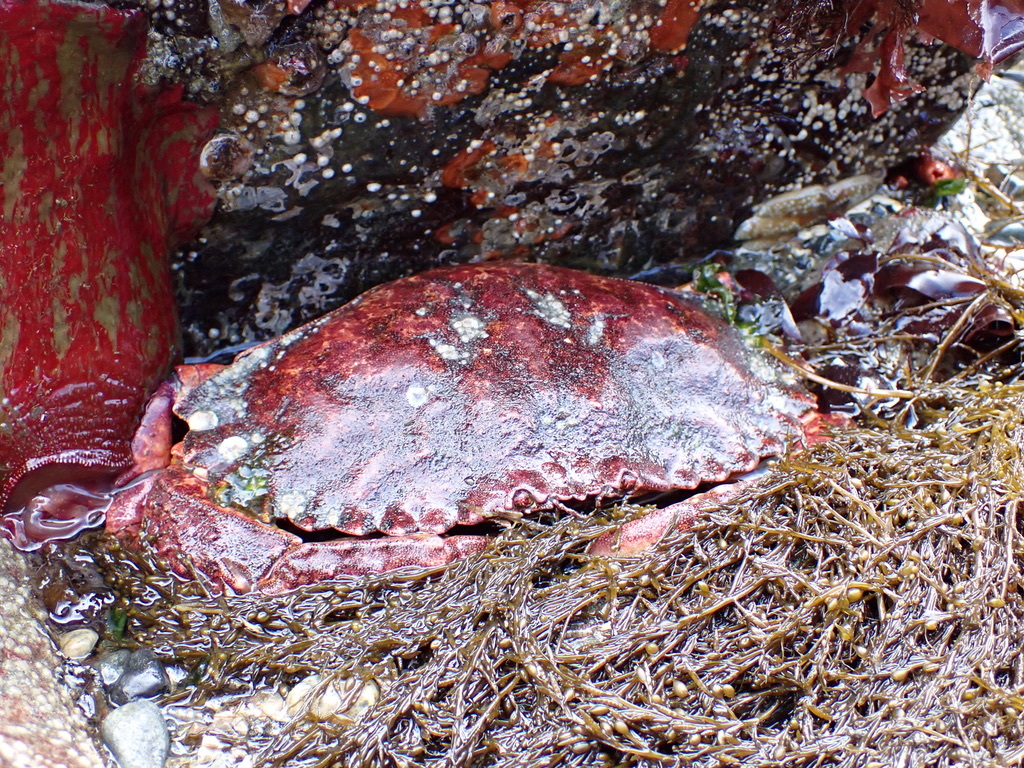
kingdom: Animalia
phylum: Arthropoda
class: Malacostraca
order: Decapoda
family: Cancridae
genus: Cancer
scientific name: Cancer productus
